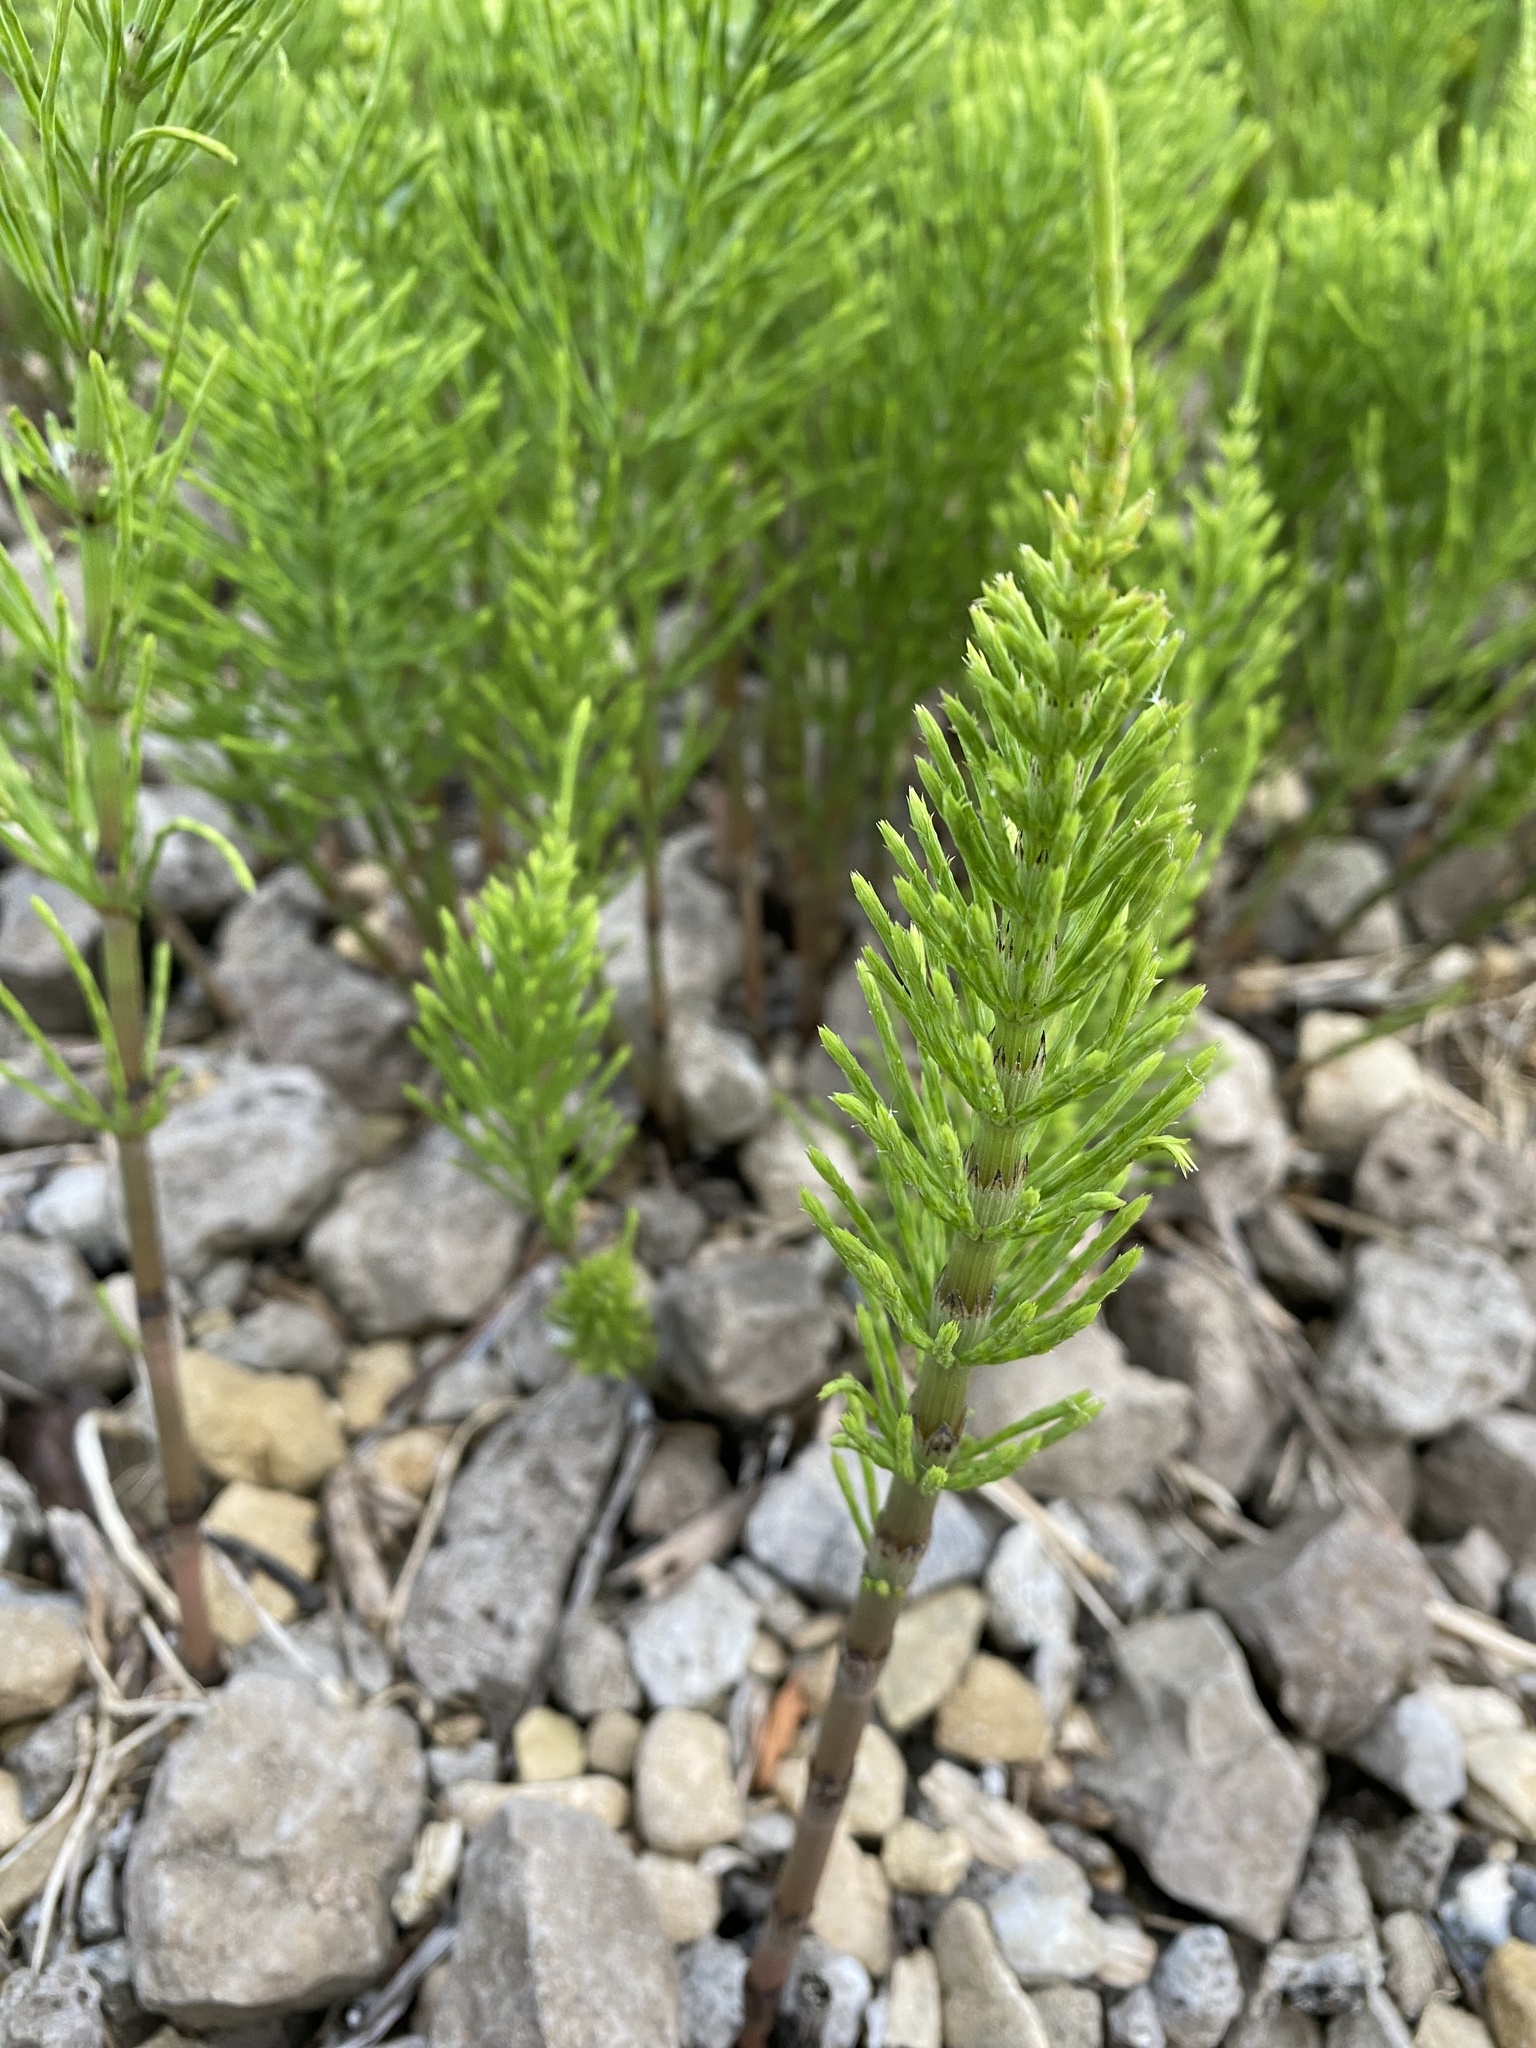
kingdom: Plantae
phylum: Tracheophyta
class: Polypodiopsida
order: Equisetales
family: Equisetaceae
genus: Equisetum
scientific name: Equisetum arvense
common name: Field horsetail
